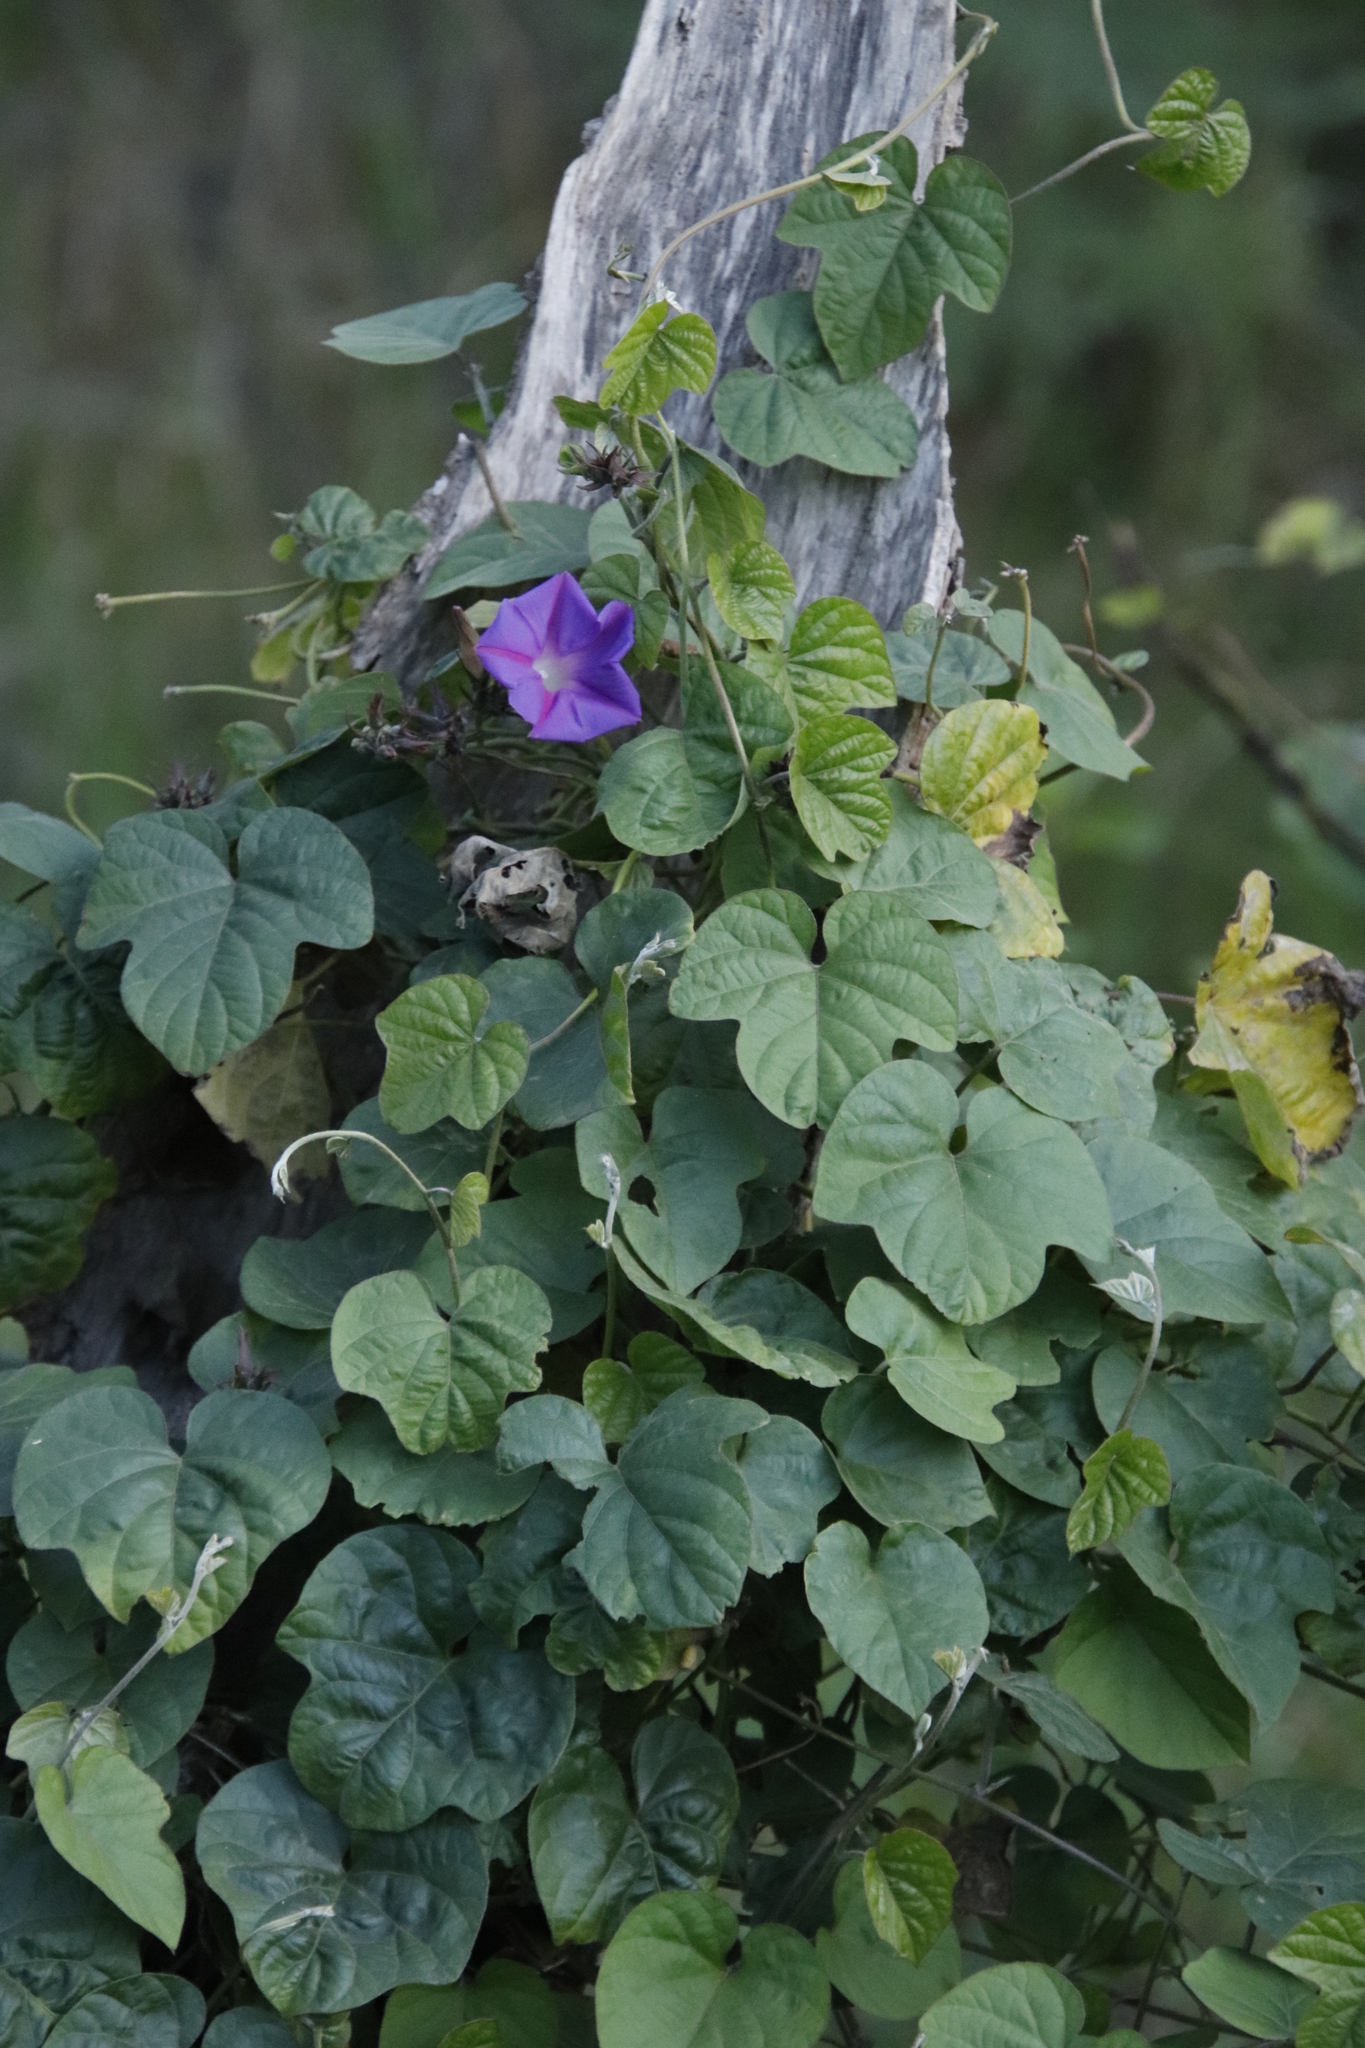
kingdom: Plantae
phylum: Tracheophyta
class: Magnoliopsida
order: Solanales
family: Convolvulaceae
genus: Ipomoea
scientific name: Ipomoea indica
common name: Blue dawnflower
